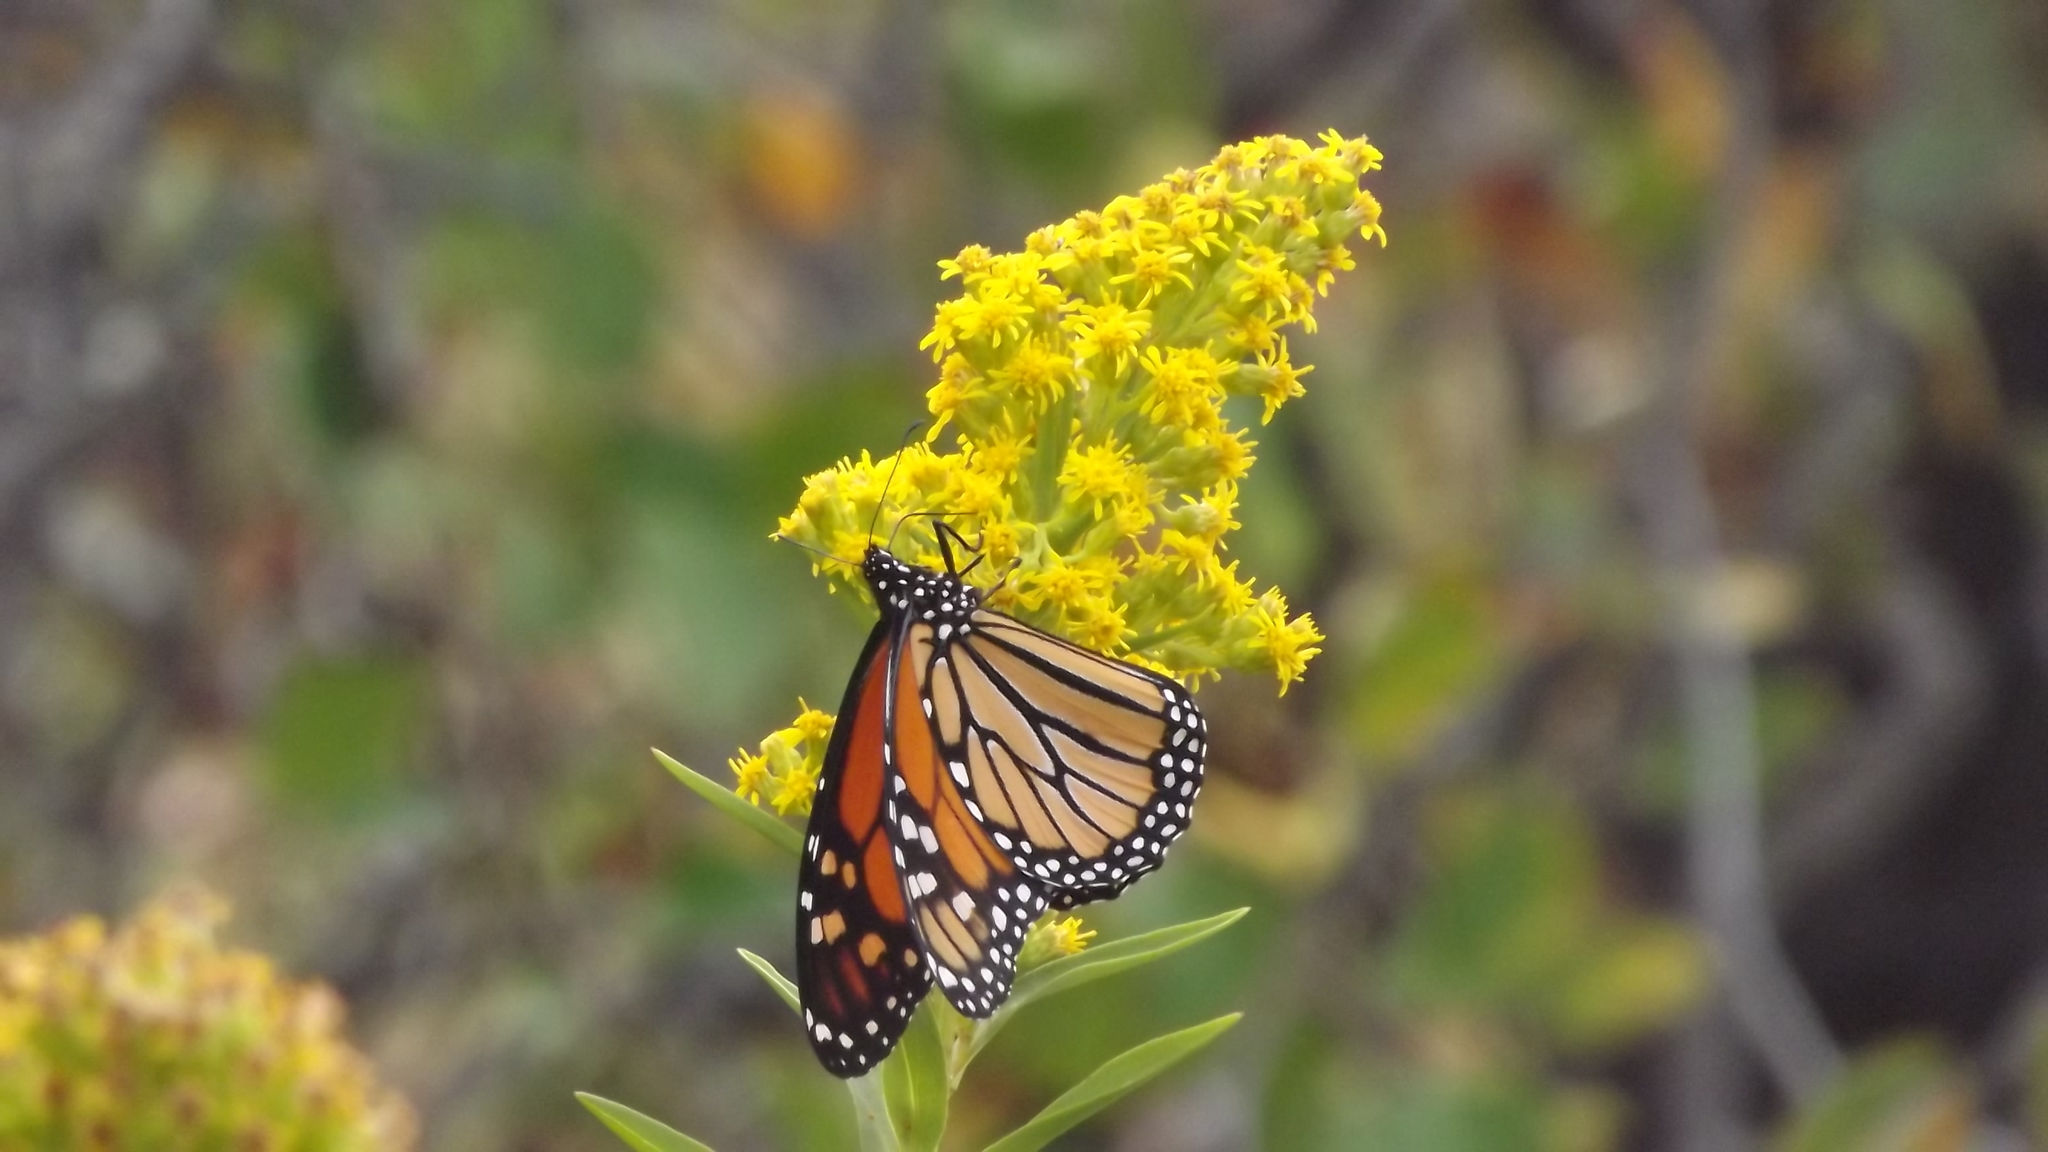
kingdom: Animalia
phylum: Arthropoda
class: Insecta
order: Lepidoptera
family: Nymphalidae
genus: Danaus
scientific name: Danaus plexippus
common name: Monarch
